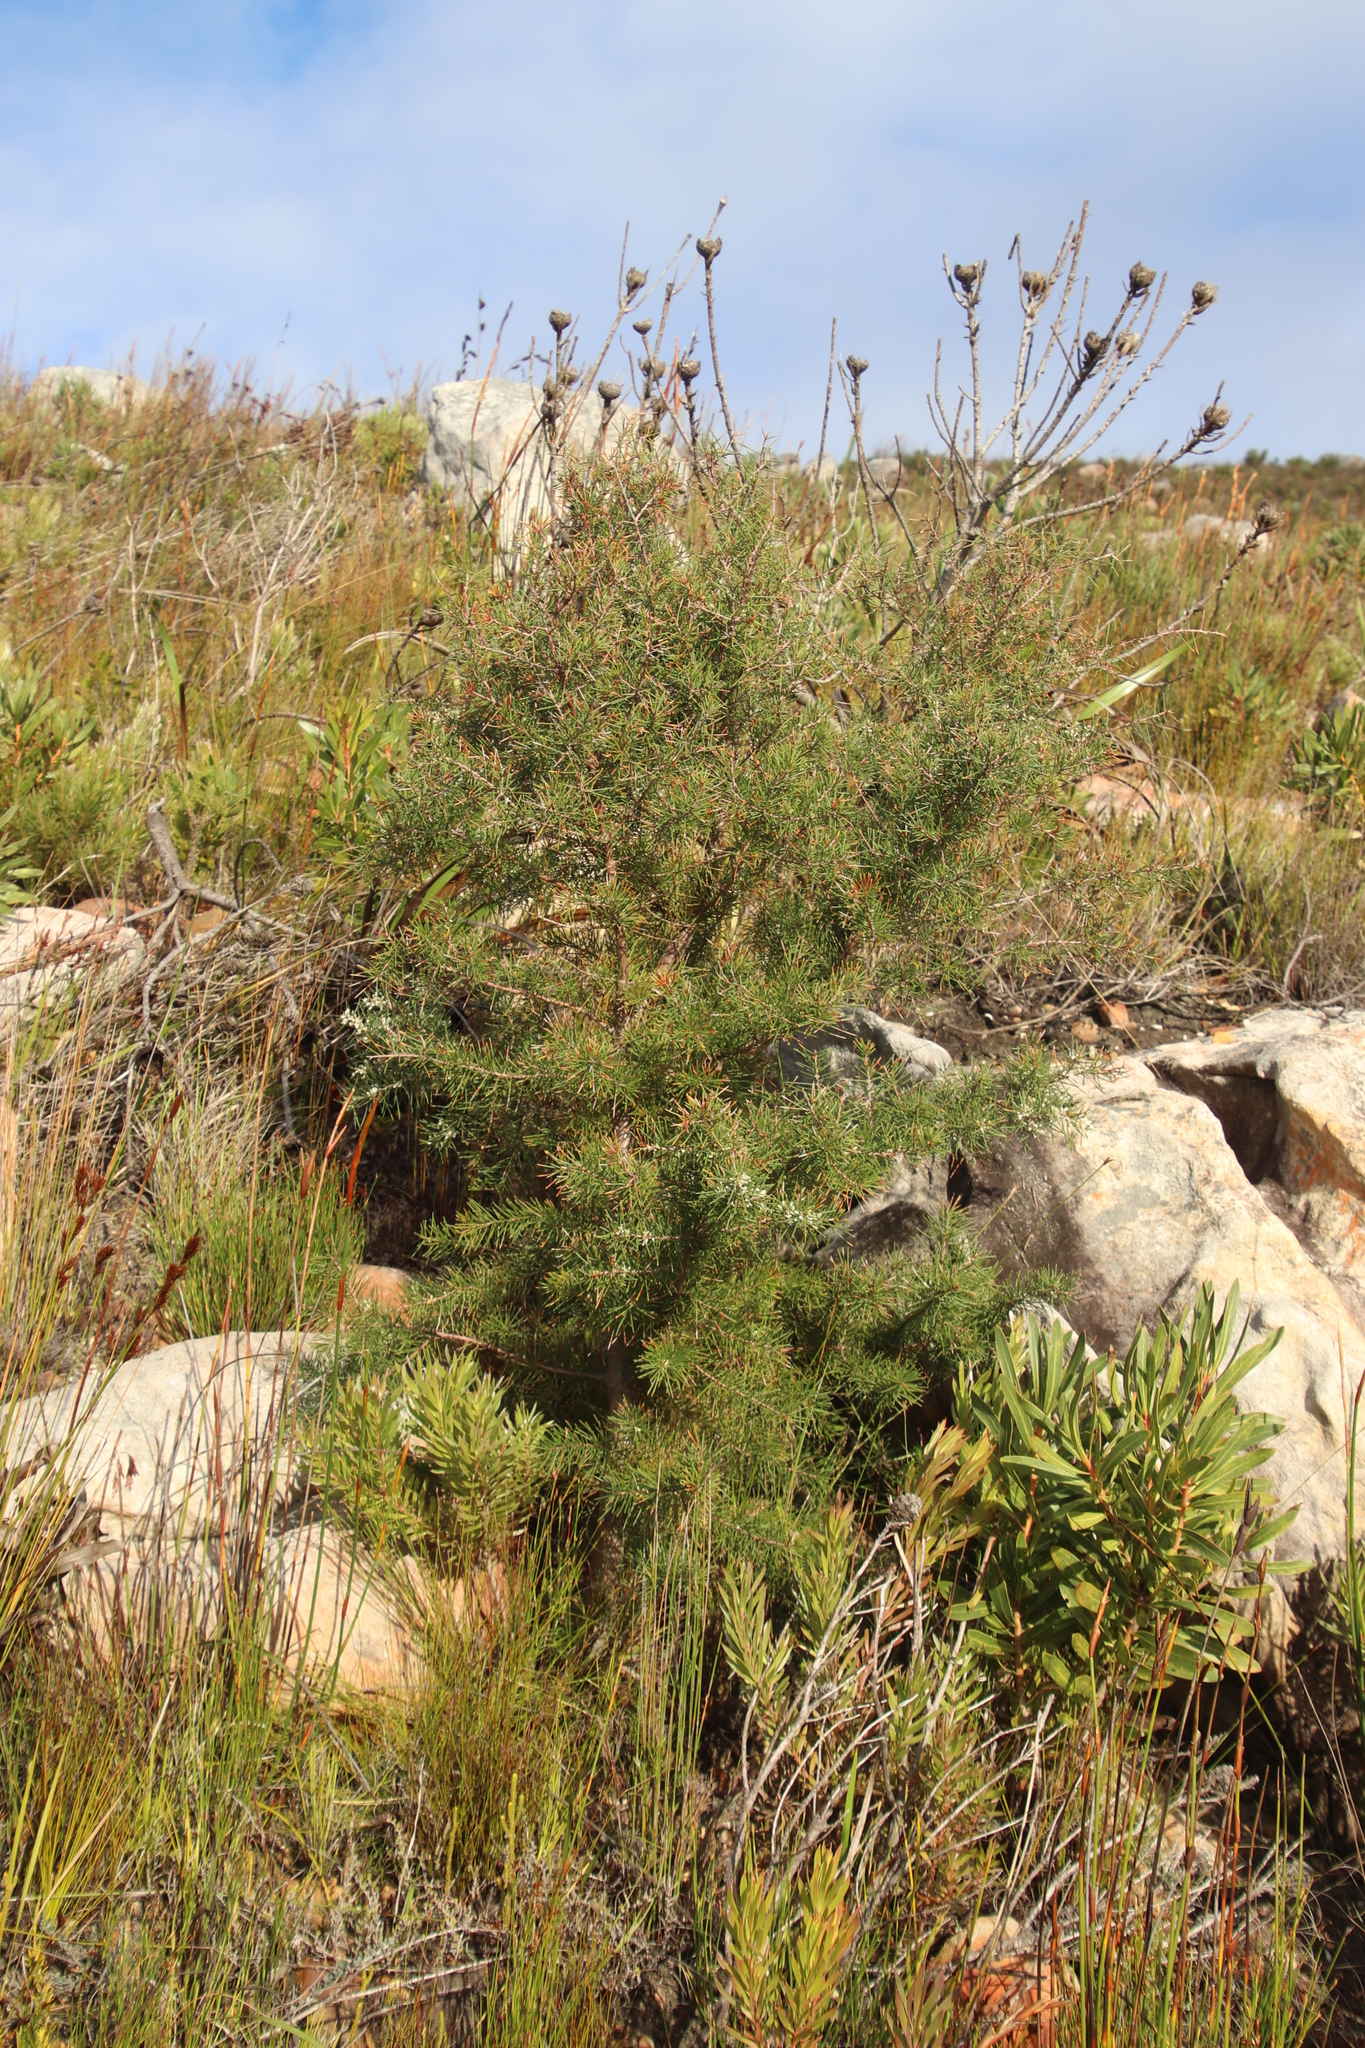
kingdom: Plantae
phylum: Tracheophyta
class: Magnoliopsida
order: Proteales
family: Proteaceae
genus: Hakea
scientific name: Hakea sericea
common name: Needle bush
